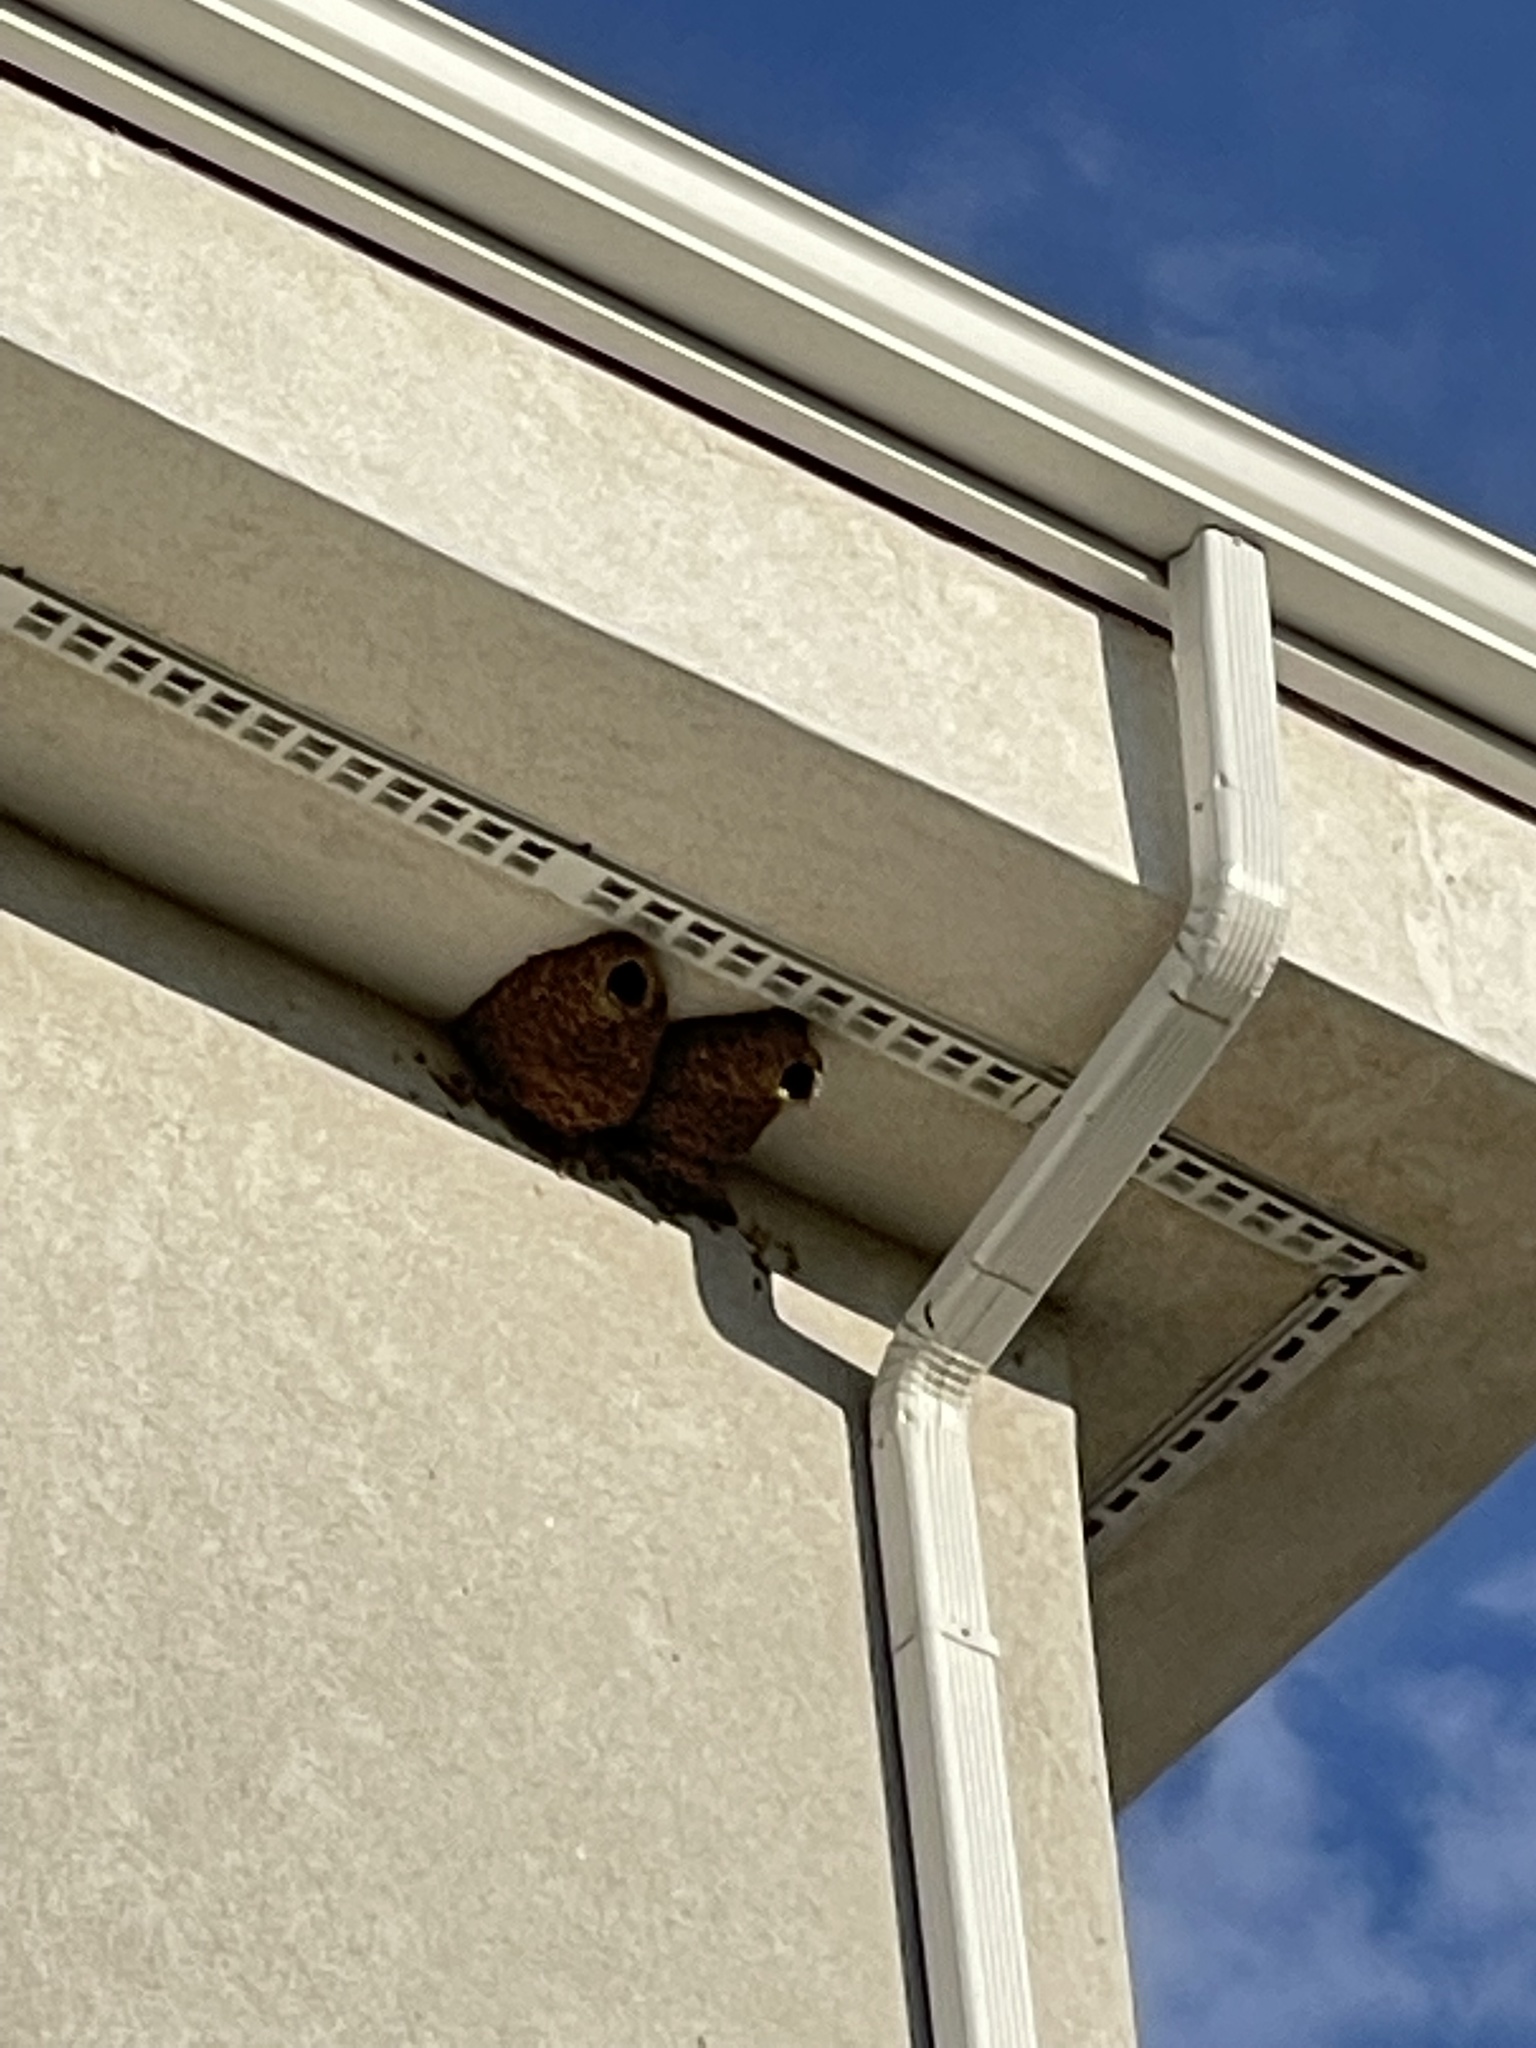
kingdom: Animalia
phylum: Chordata
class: Aves
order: Passeriformes
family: Hirundinidae
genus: Petrochelidon
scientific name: Petrochelidon pyrrhonota
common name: American cliff swallow
